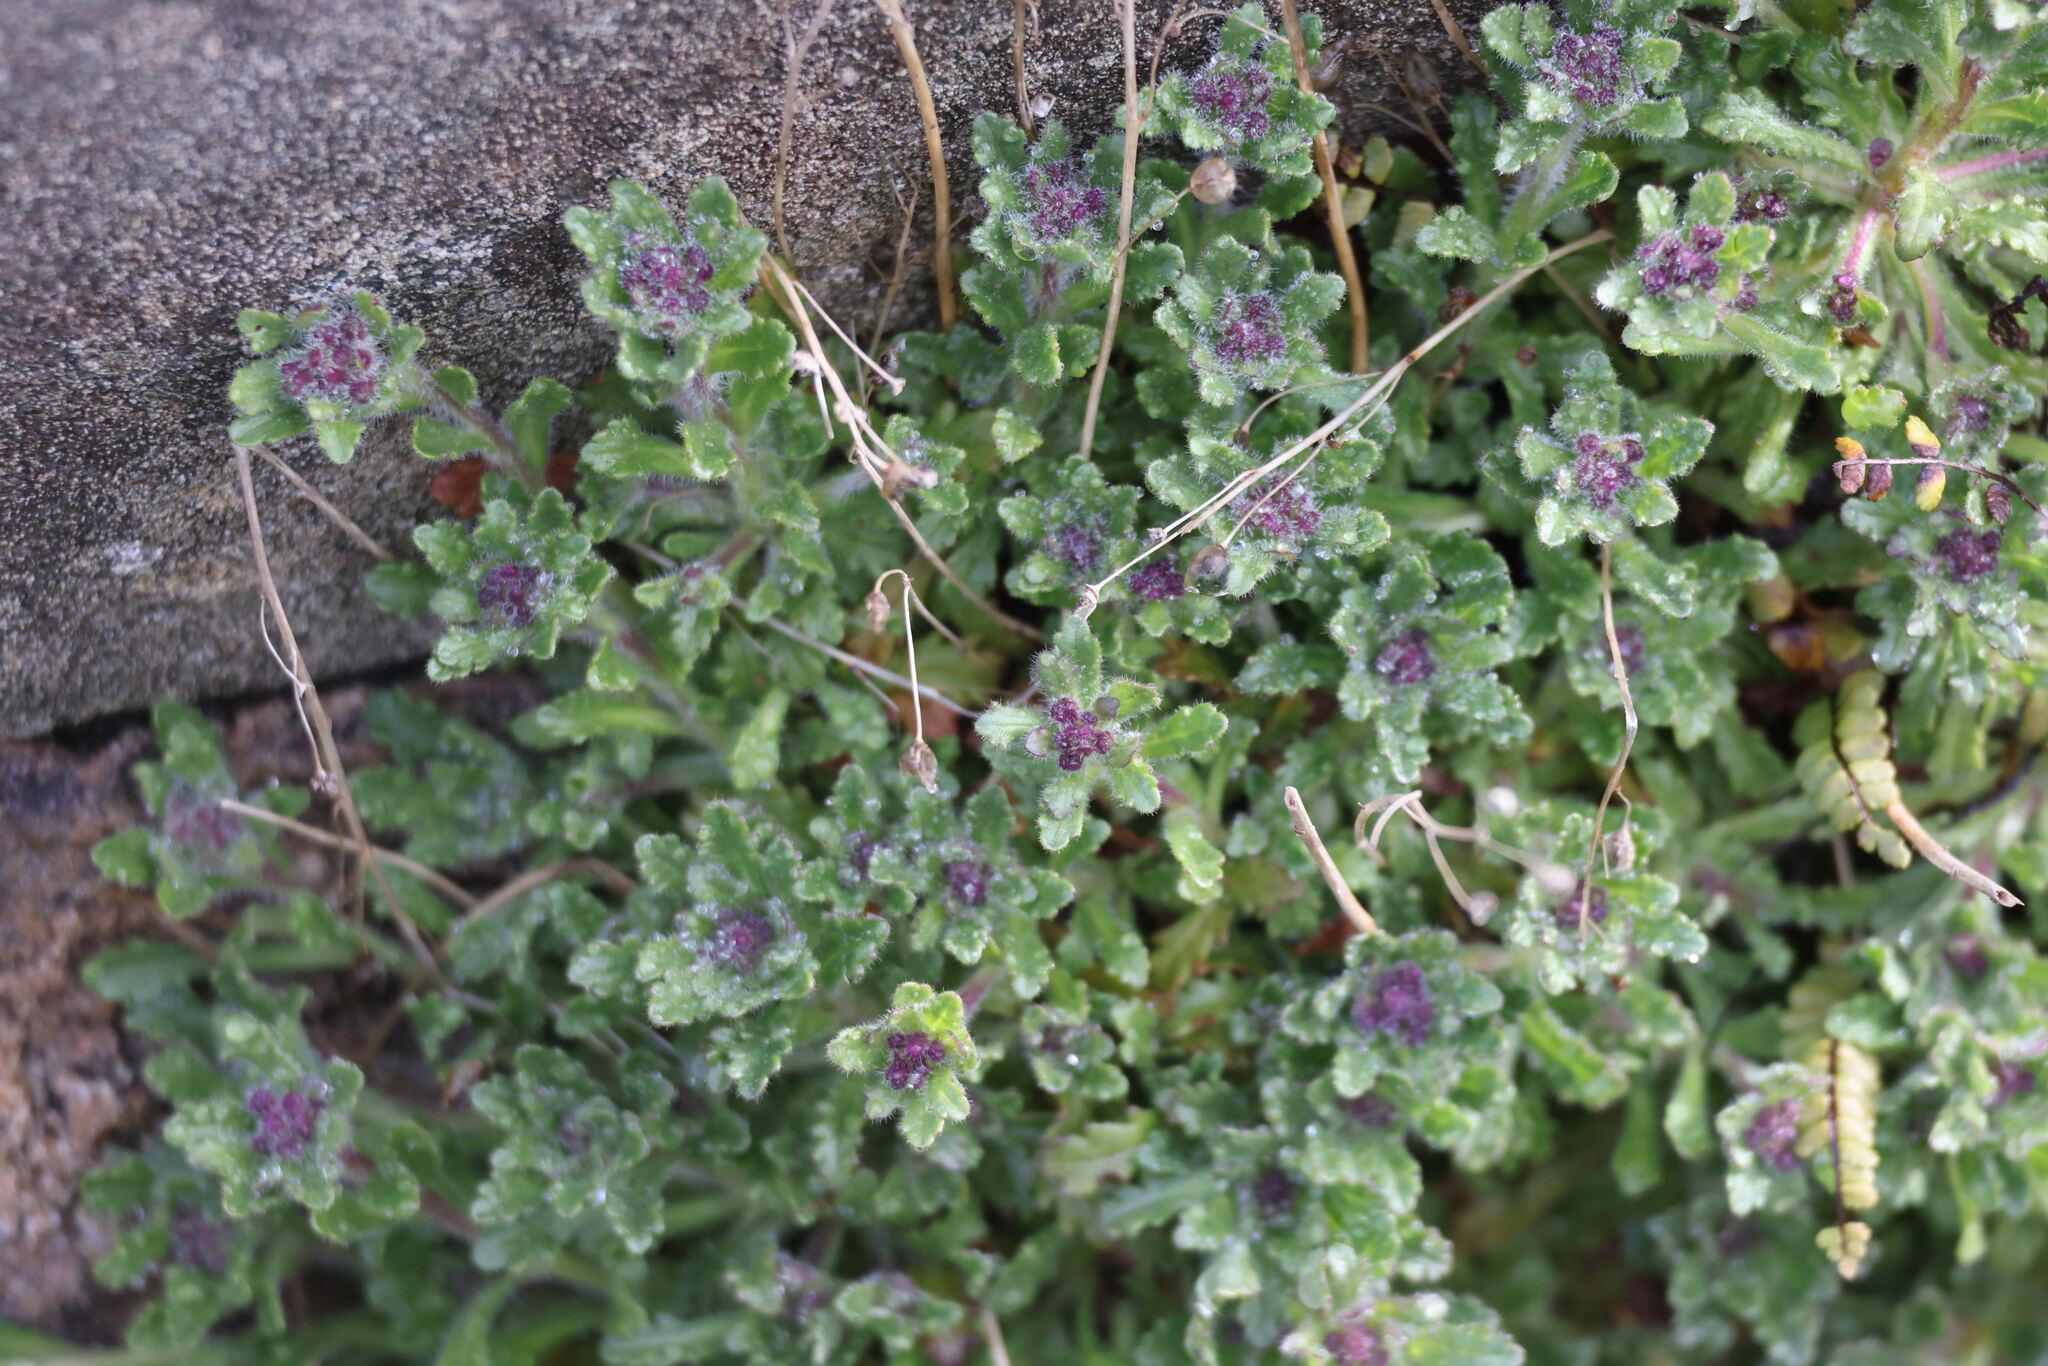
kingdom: Plantae
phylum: Tracheophyta
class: Magnoliopsida
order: Lamiales
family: Plantaginaceae
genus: Erinus
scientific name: Erinus alpinus
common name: Fairy foxglove
